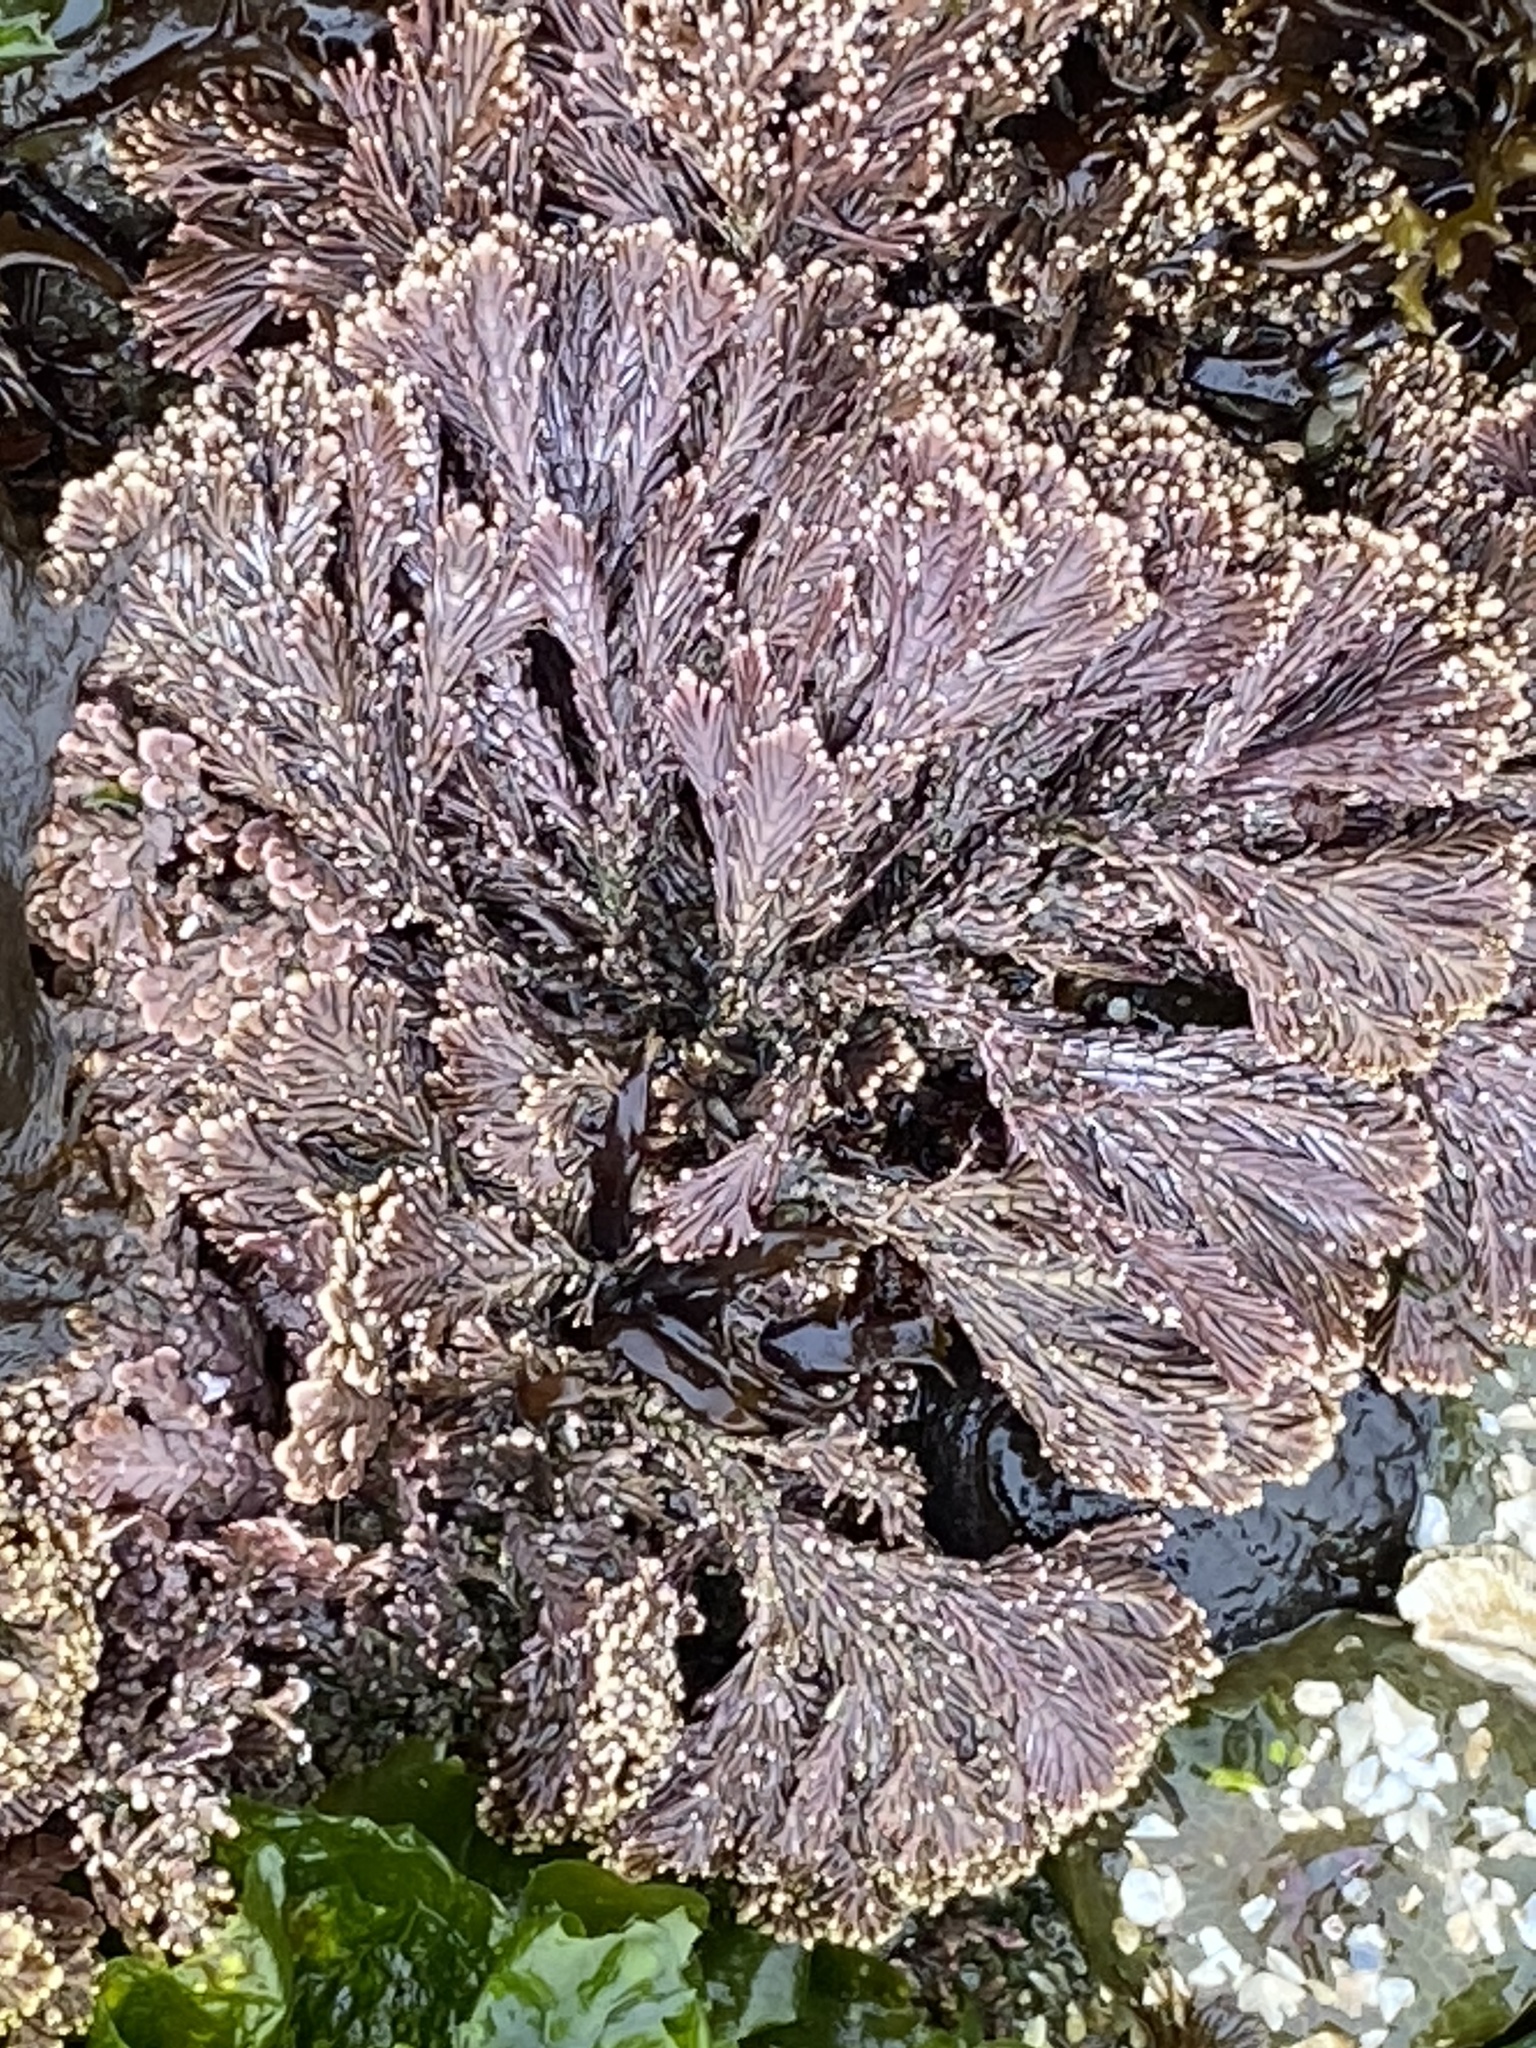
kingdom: Plantae
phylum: Rhodophyta
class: Florideophyceae
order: Corallinales
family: Corallinaceae
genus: Corallina
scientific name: Corallina vancouveriensis
